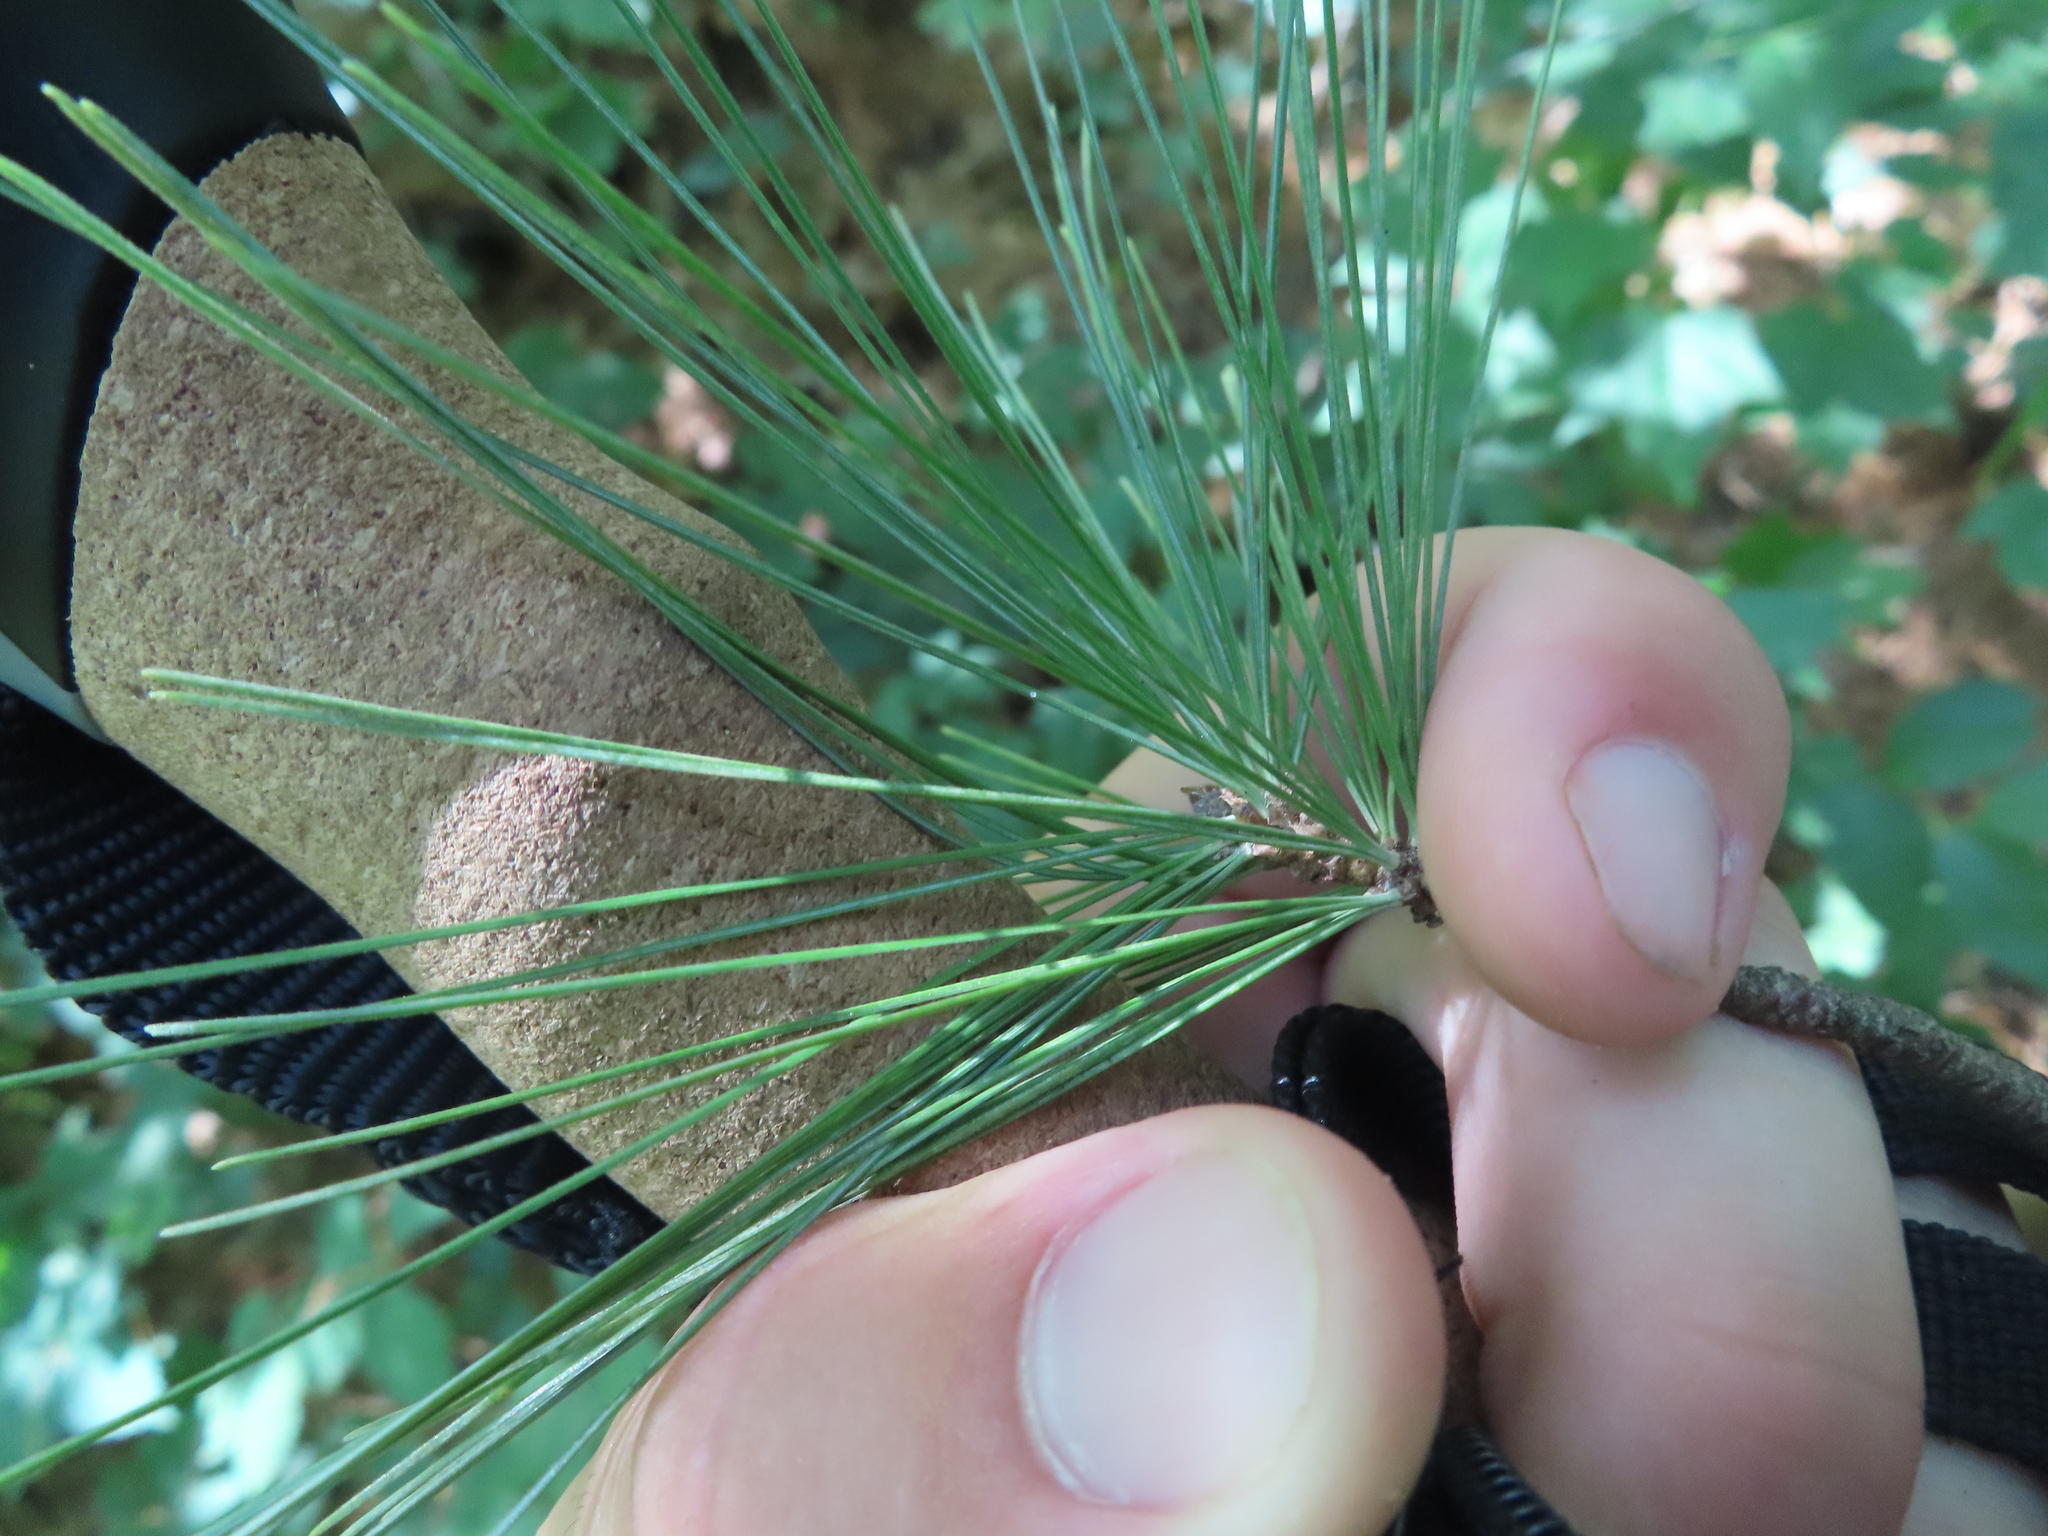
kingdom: Plantae
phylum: Tracheophyta
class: Pinopsida
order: Pinales
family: Pinaceae
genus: Pinus
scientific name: Pinus strobus
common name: Weymouth pine
